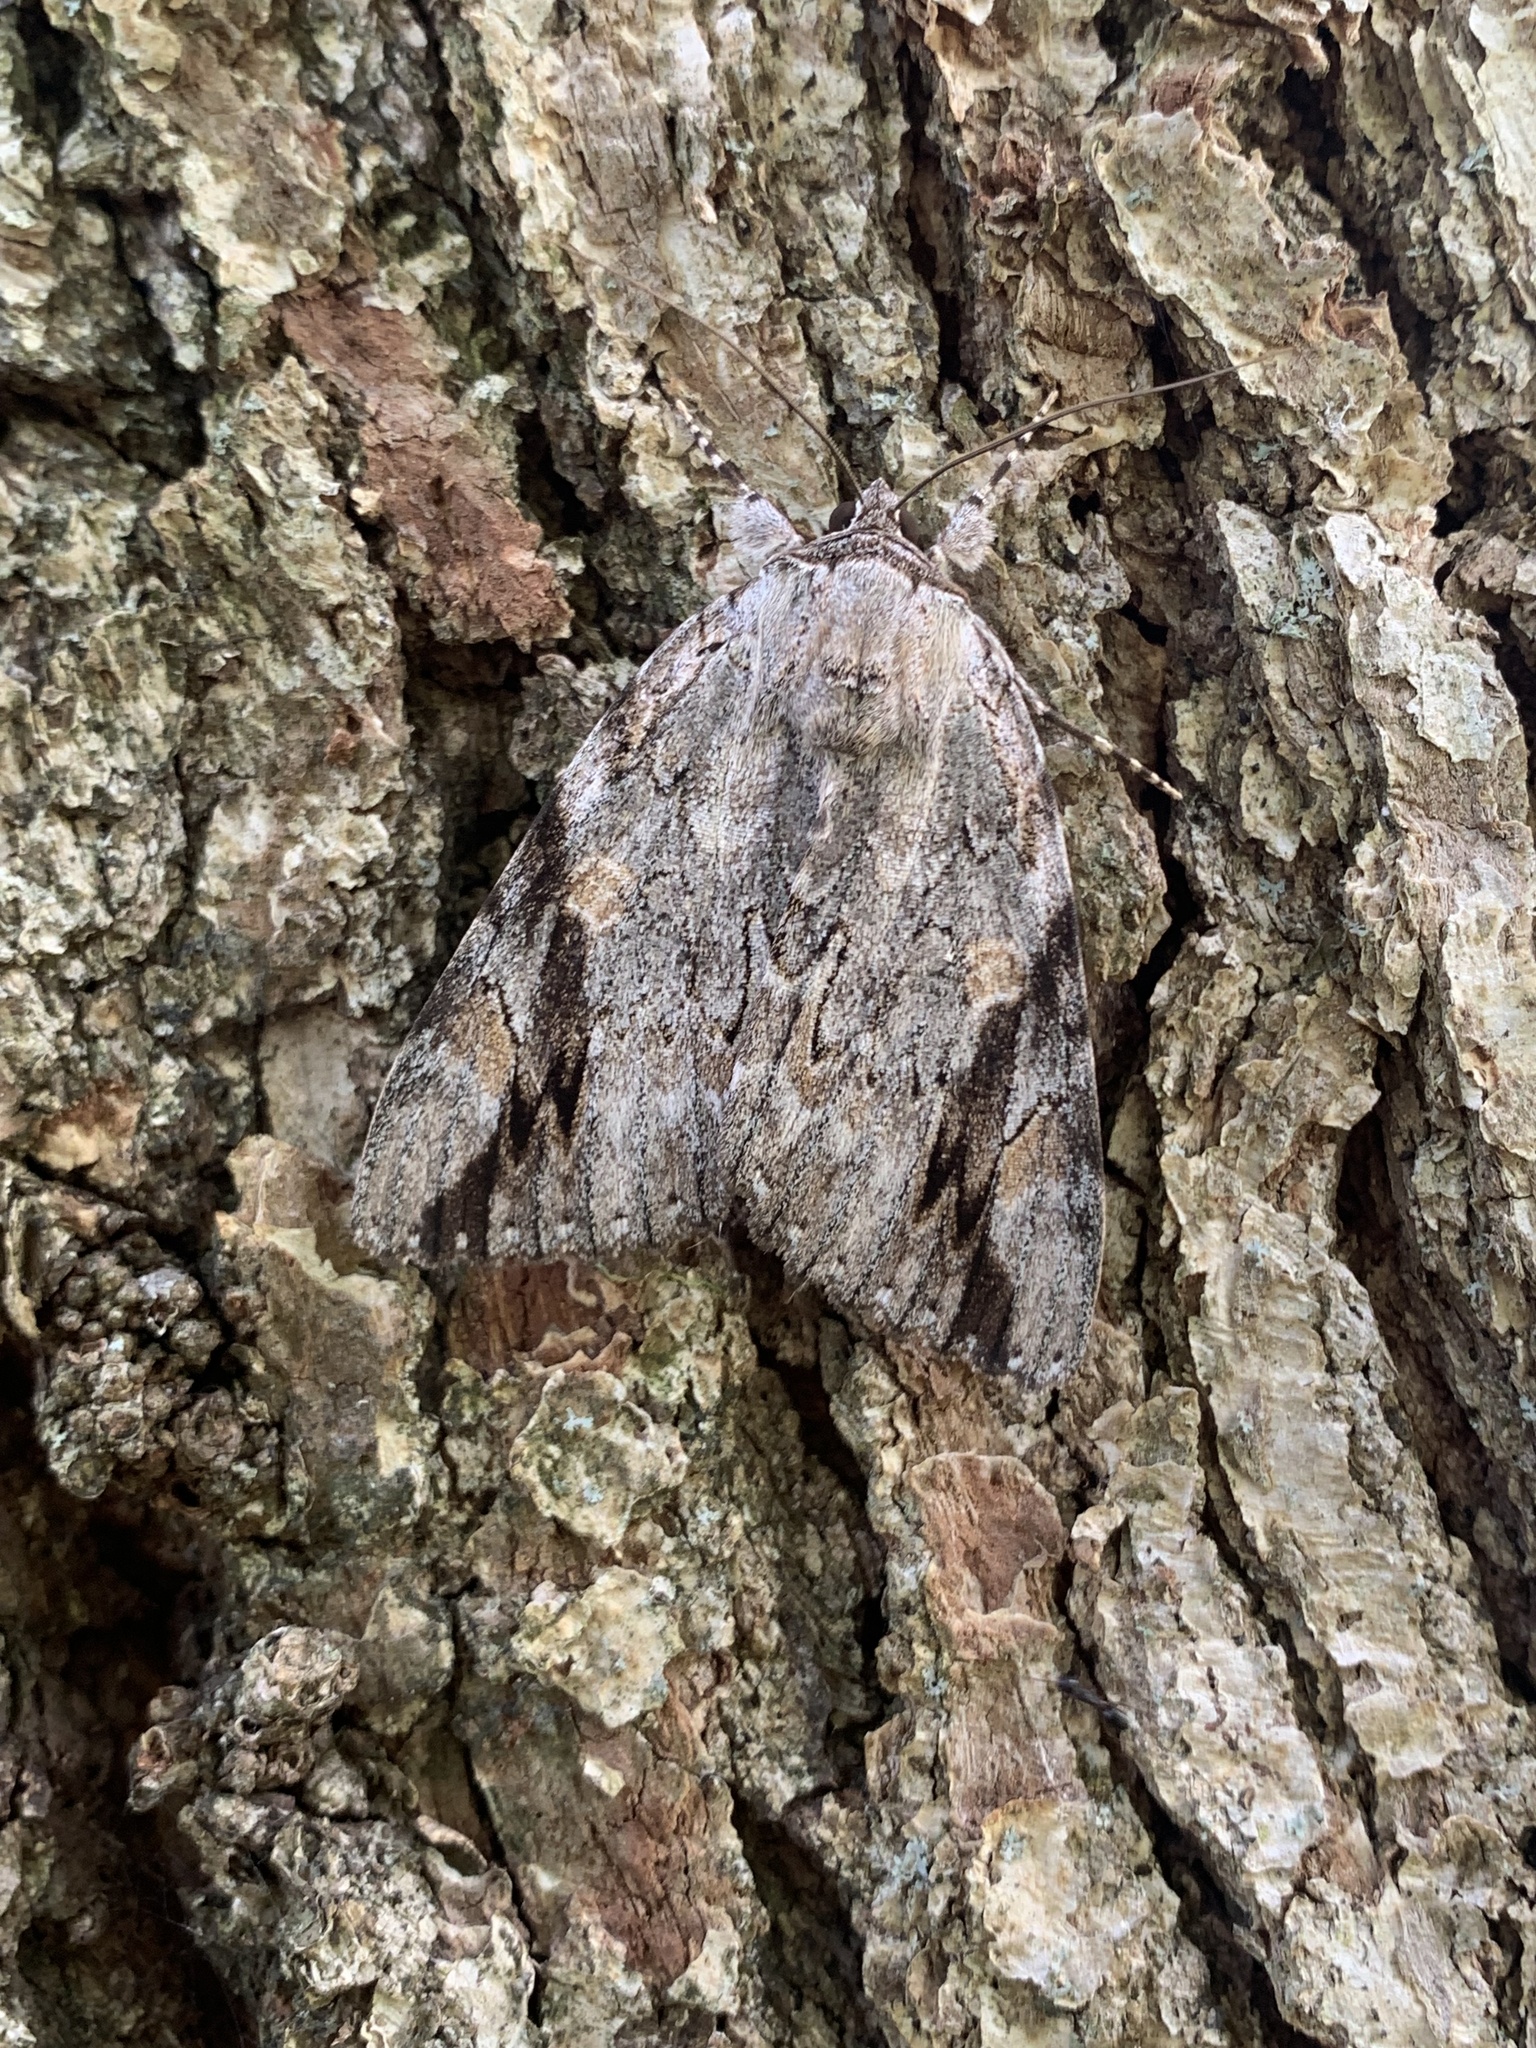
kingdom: Animalia
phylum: Arthropoda
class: Insecta
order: Lepidoptera
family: Erebidae
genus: Catocala
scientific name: Catocala maestosa
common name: Sad underwing
